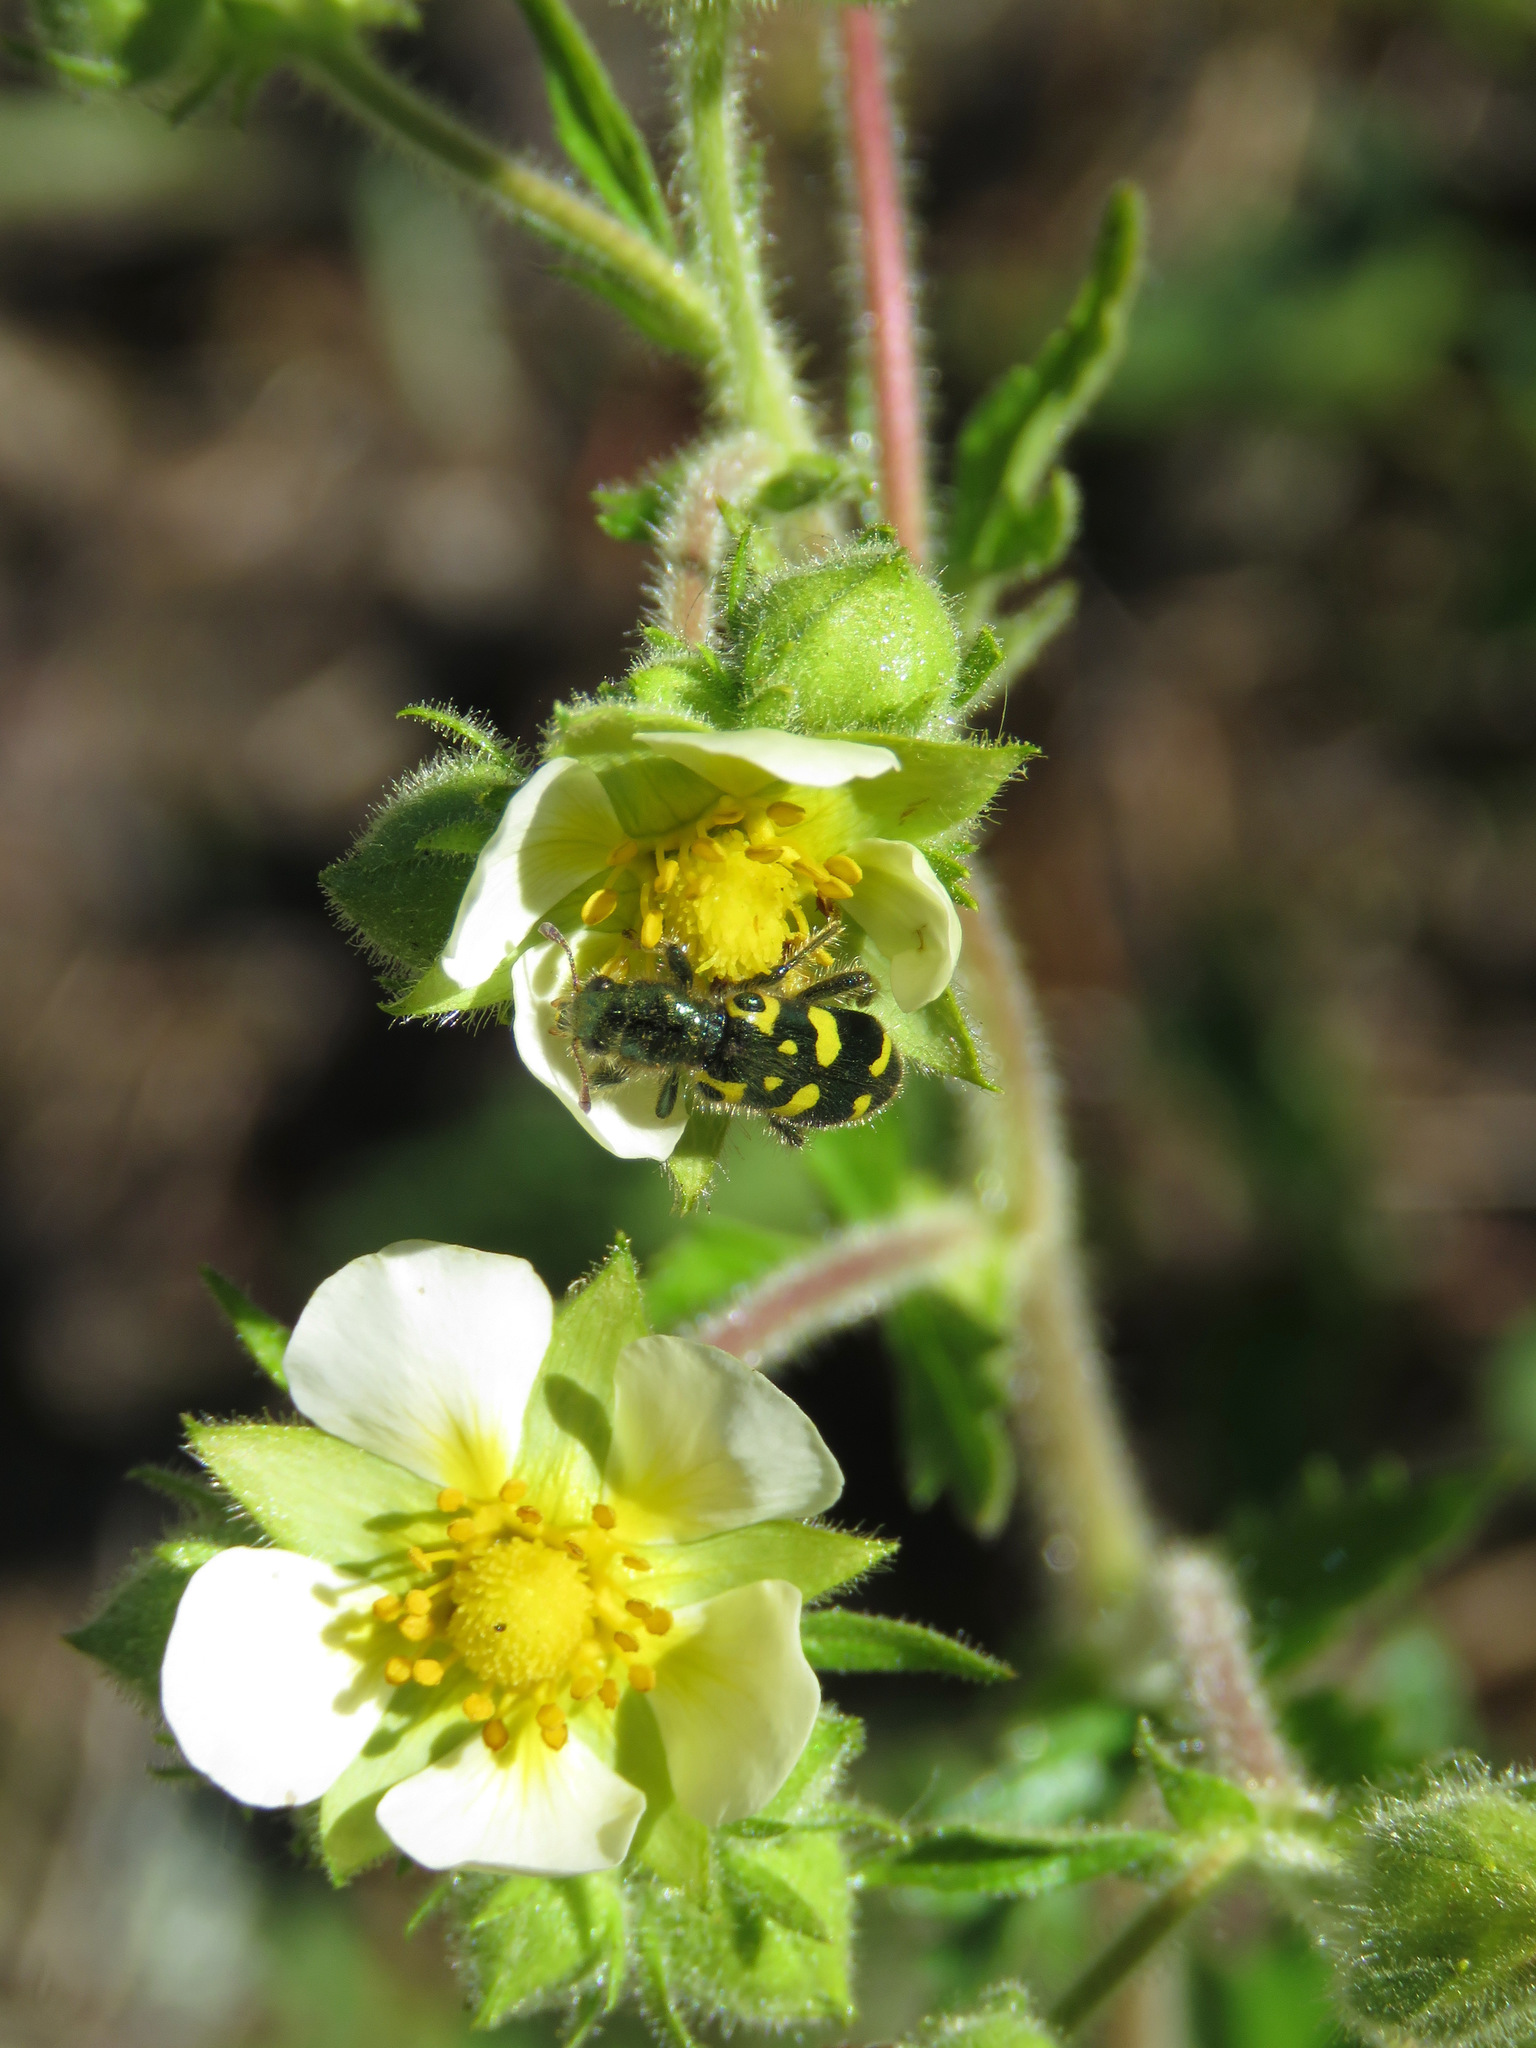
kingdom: Animalia
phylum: Arthropoda
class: Insecta
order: Coleoptera
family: Cleridae
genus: Trichodes
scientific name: Trichodes ornatus
